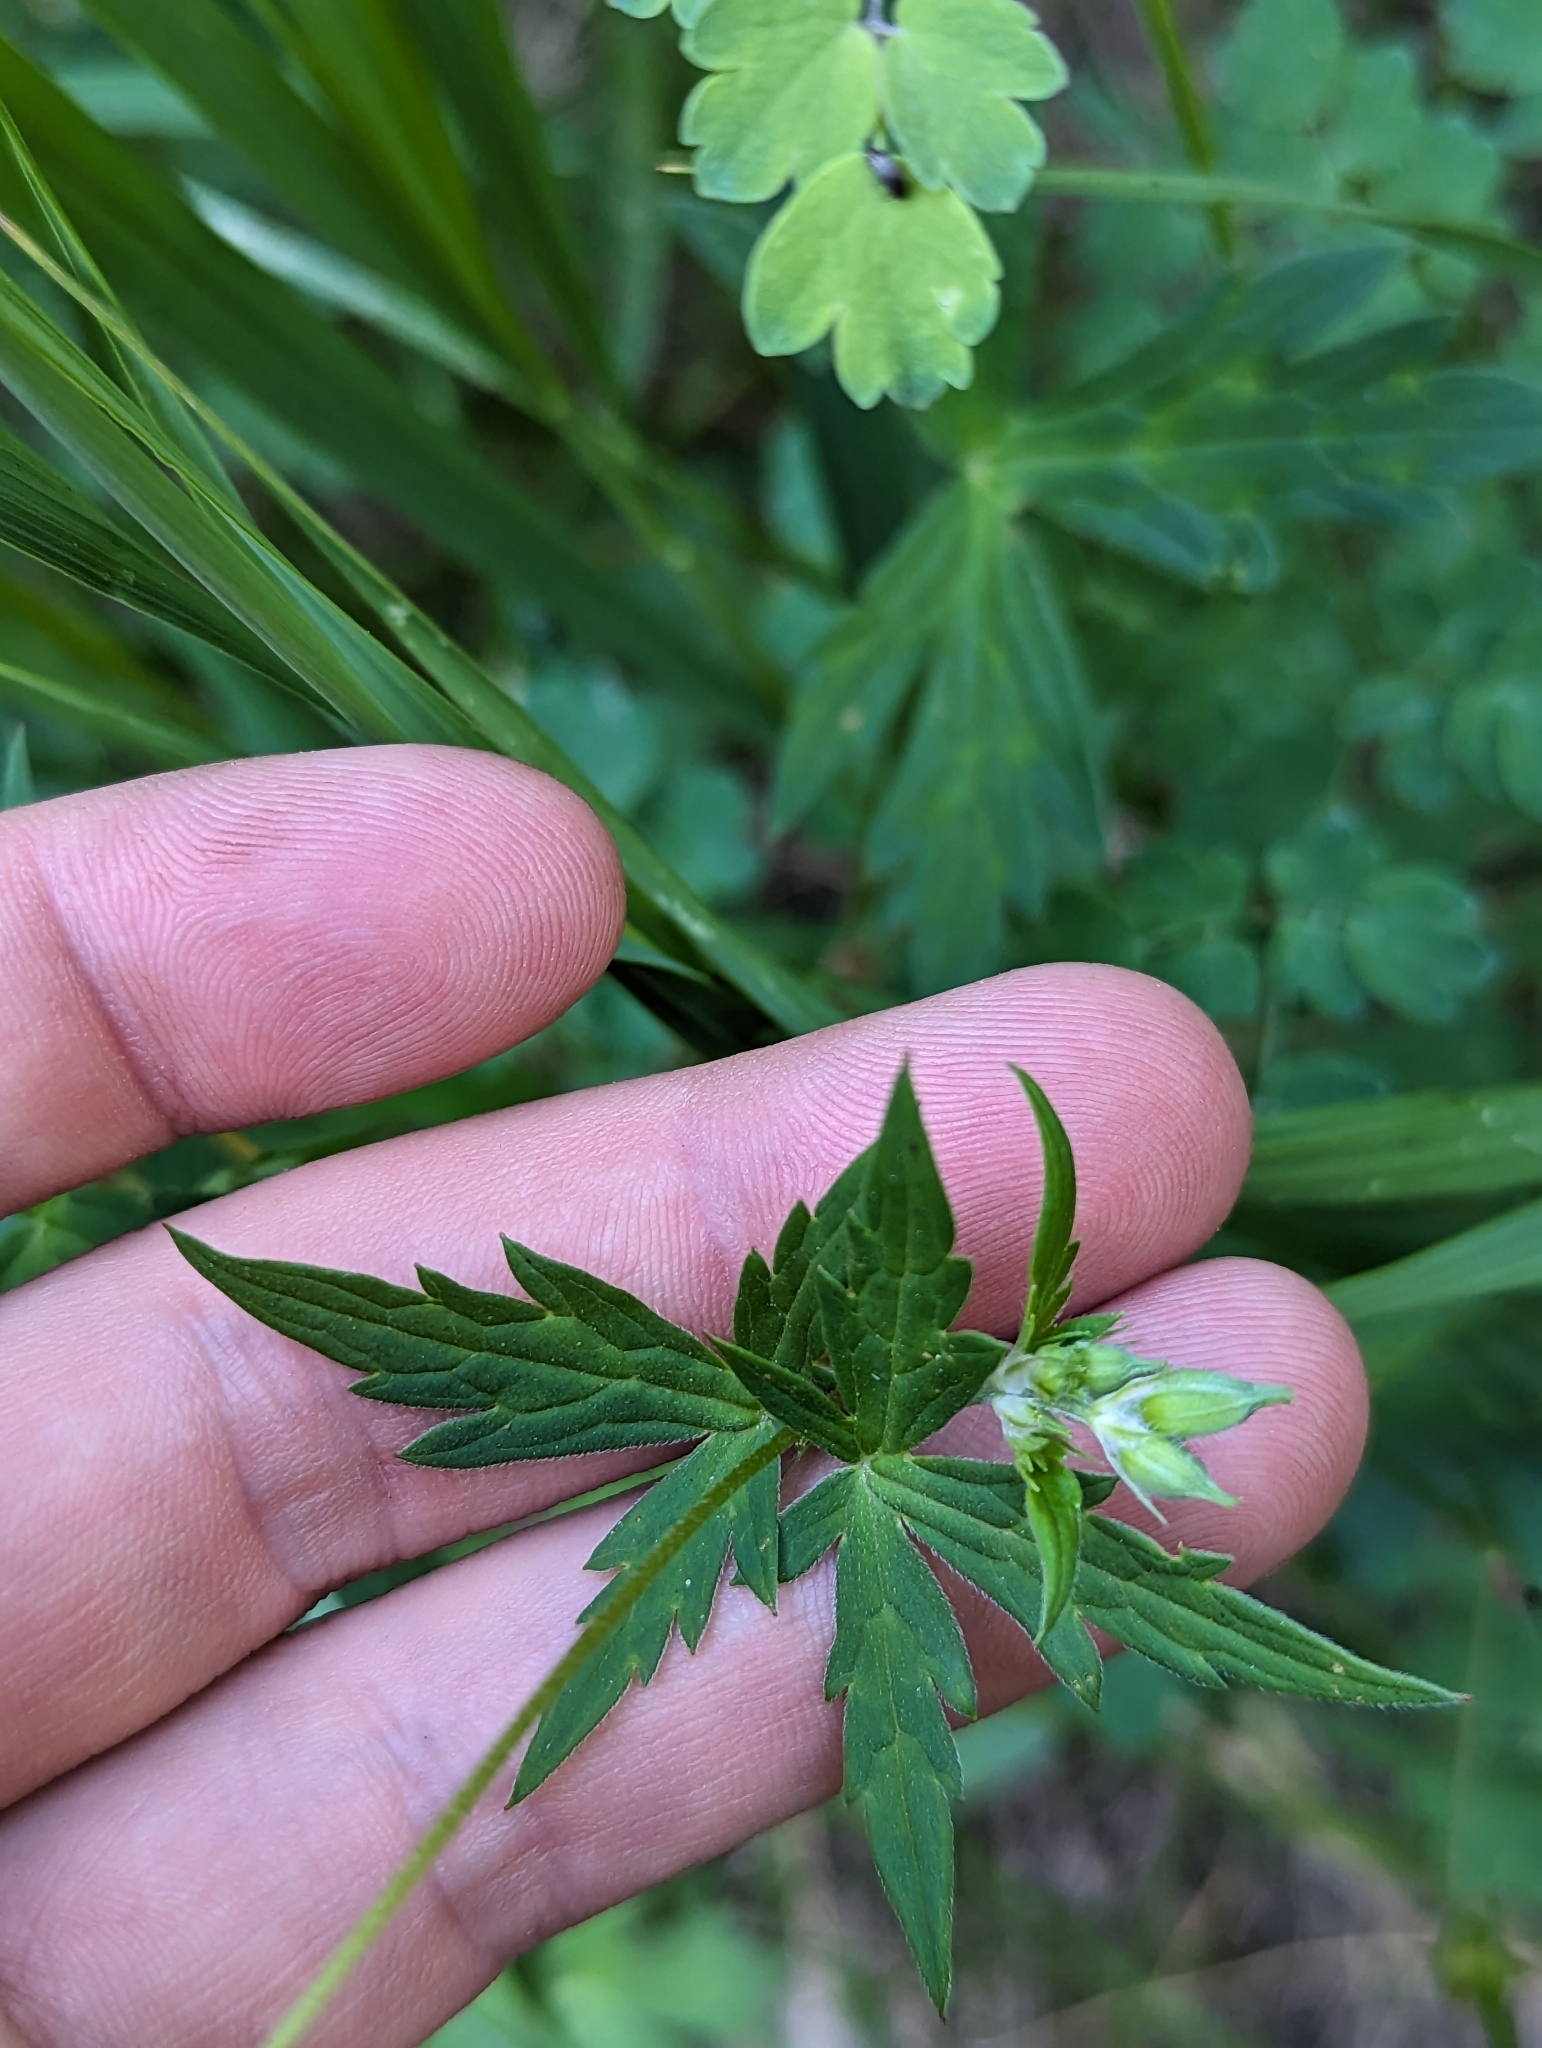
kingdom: Plantae
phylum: Tracheophyta
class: Magnoliopsida
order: Geraniales
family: Geraniaceae
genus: Geranium
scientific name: Geranium richardsonii
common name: Richardson's crane's-bill
